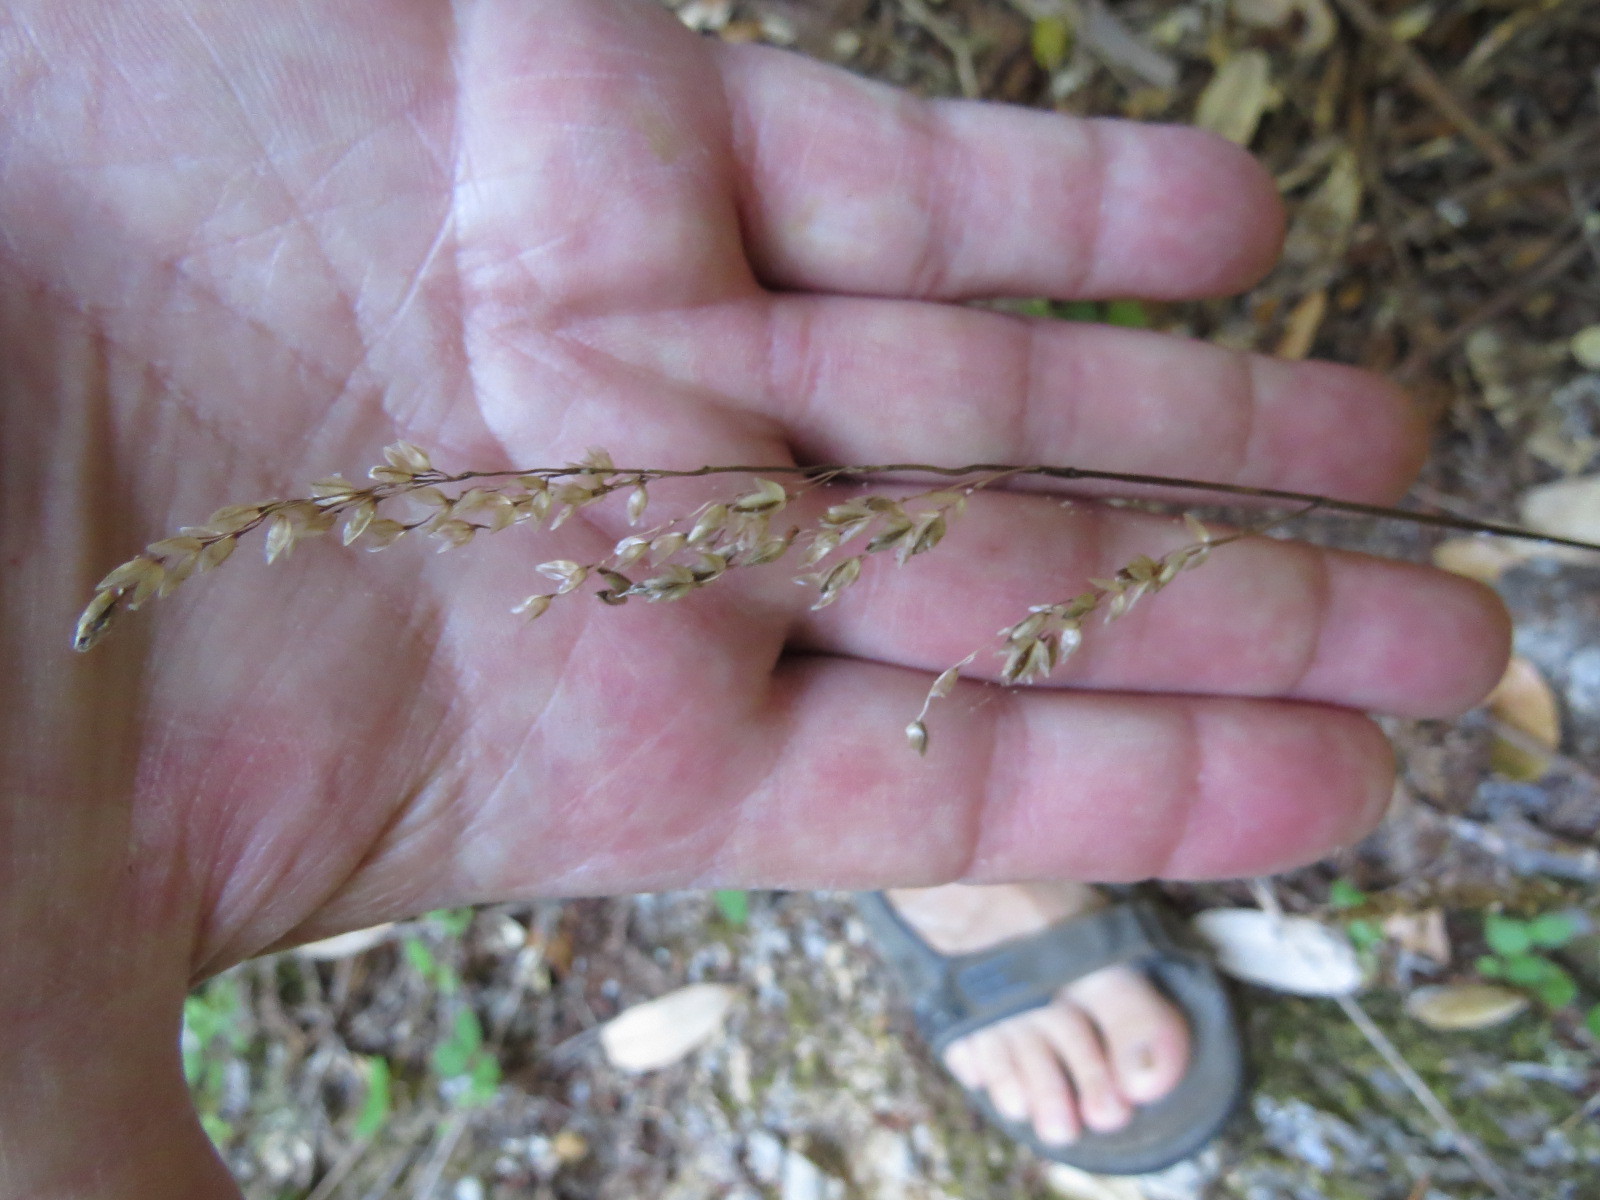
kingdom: Plantae
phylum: Tracheophyta
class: Liliopsida
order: Poales
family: Poaceae
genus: Anthoxanthum
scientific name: Anthoxanthum occidentale
